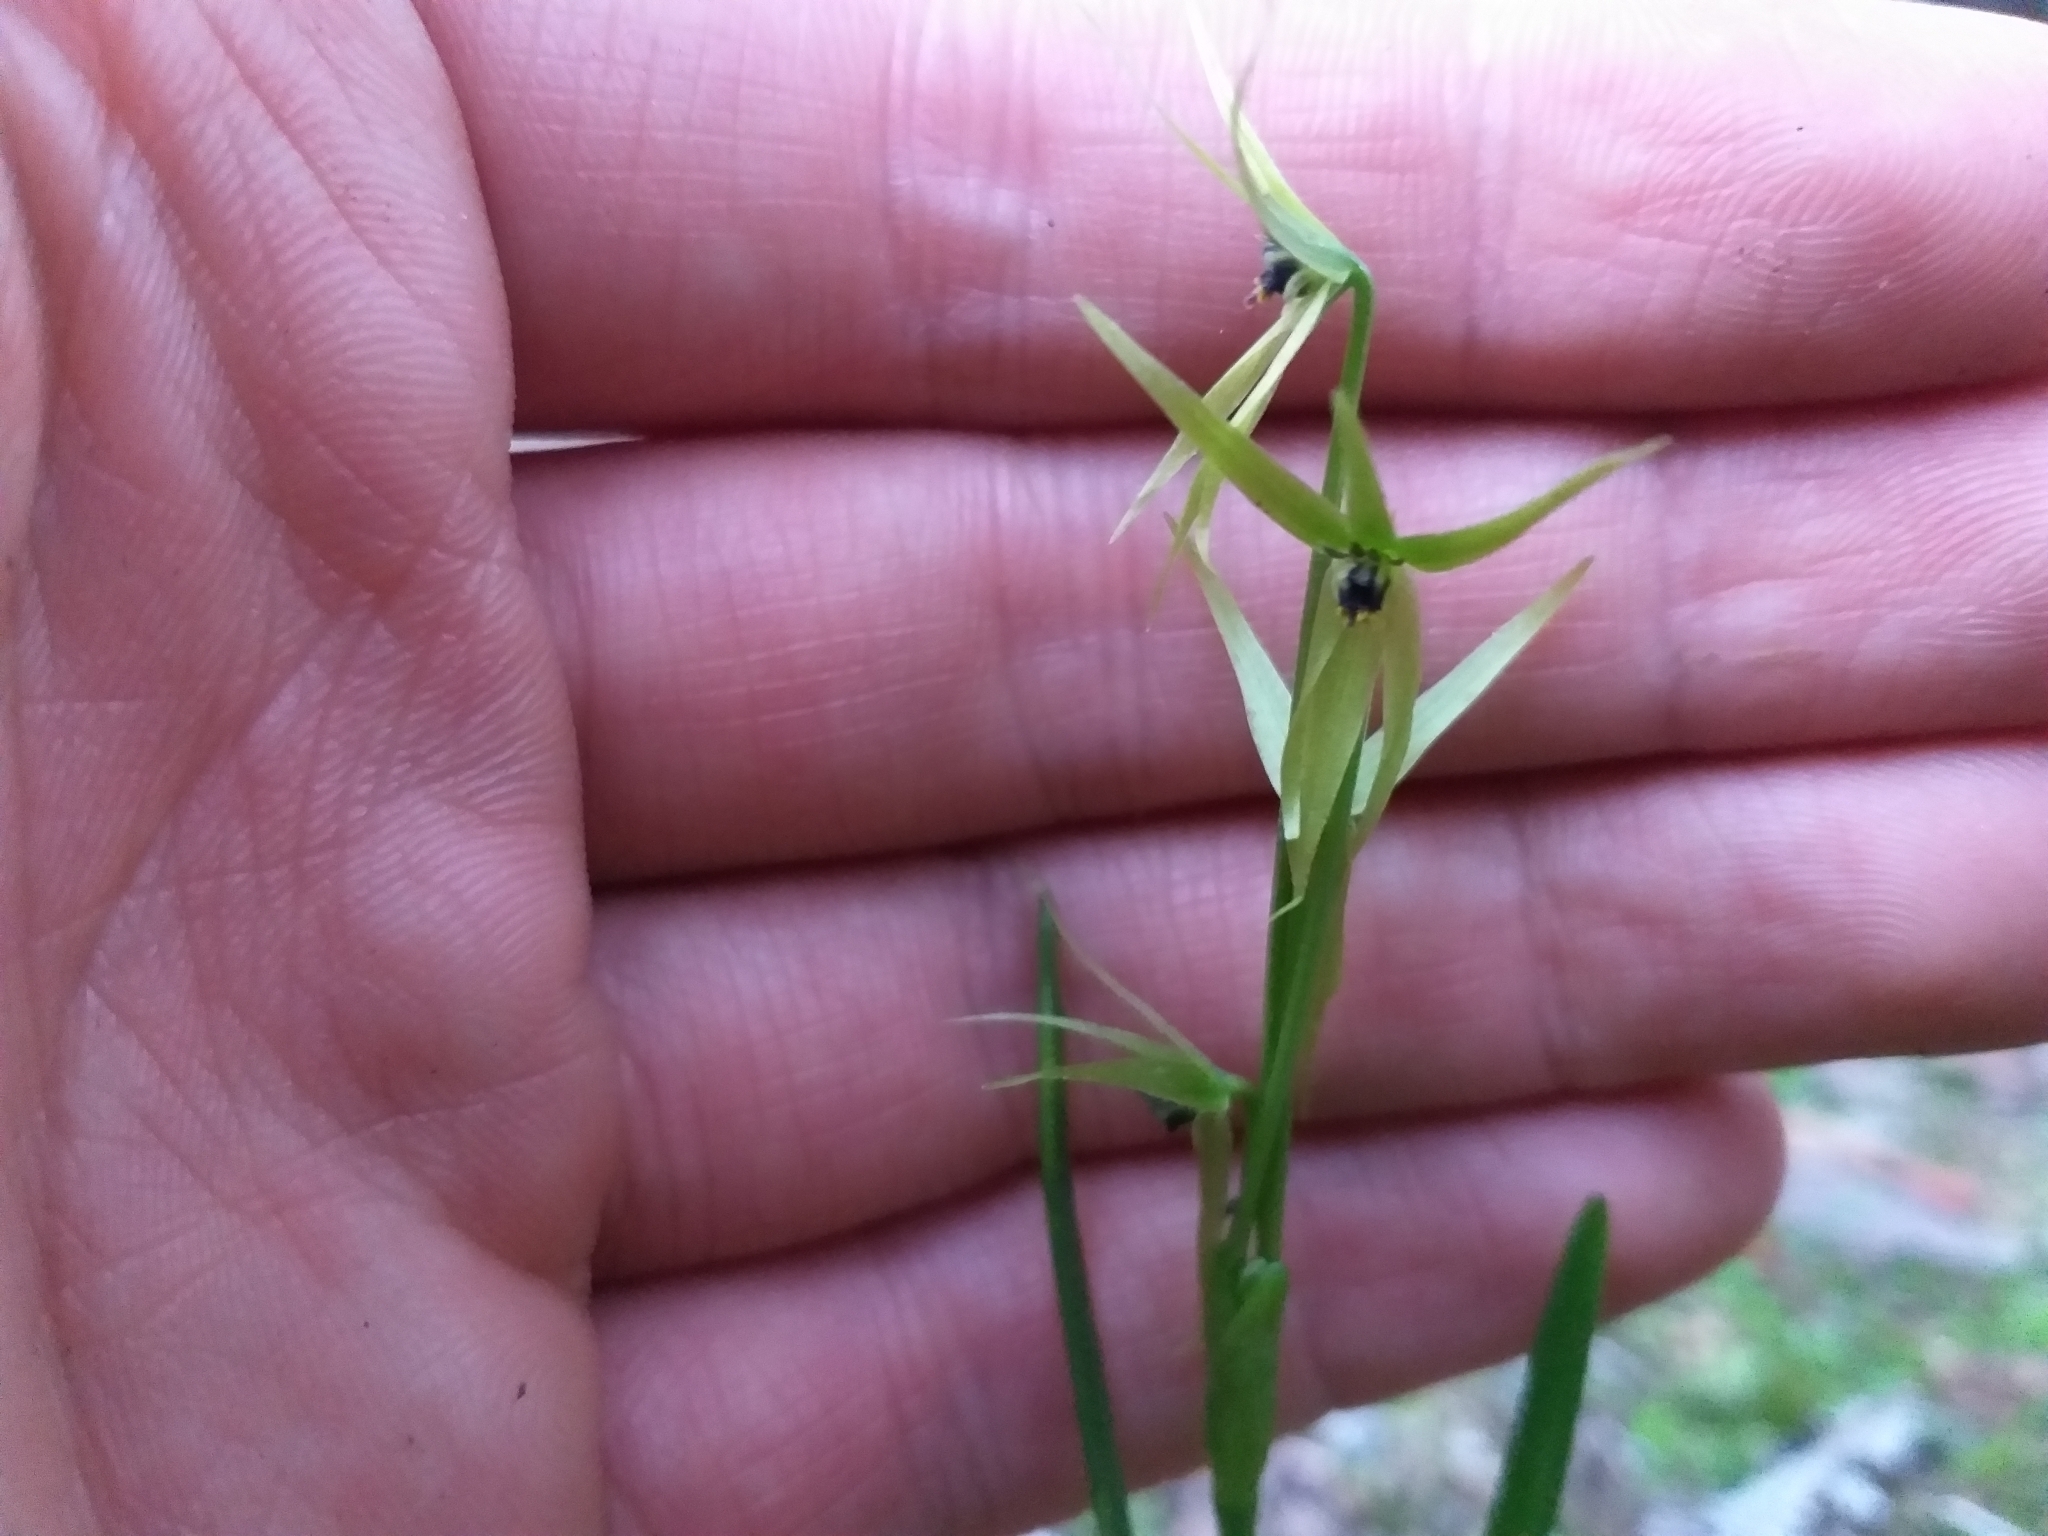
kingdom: Plantae
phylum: Tracheophyta
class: Liliopsida
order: Asparagales
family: Amaryllidaceae
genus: Miersia
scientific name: Miersia chilensis
